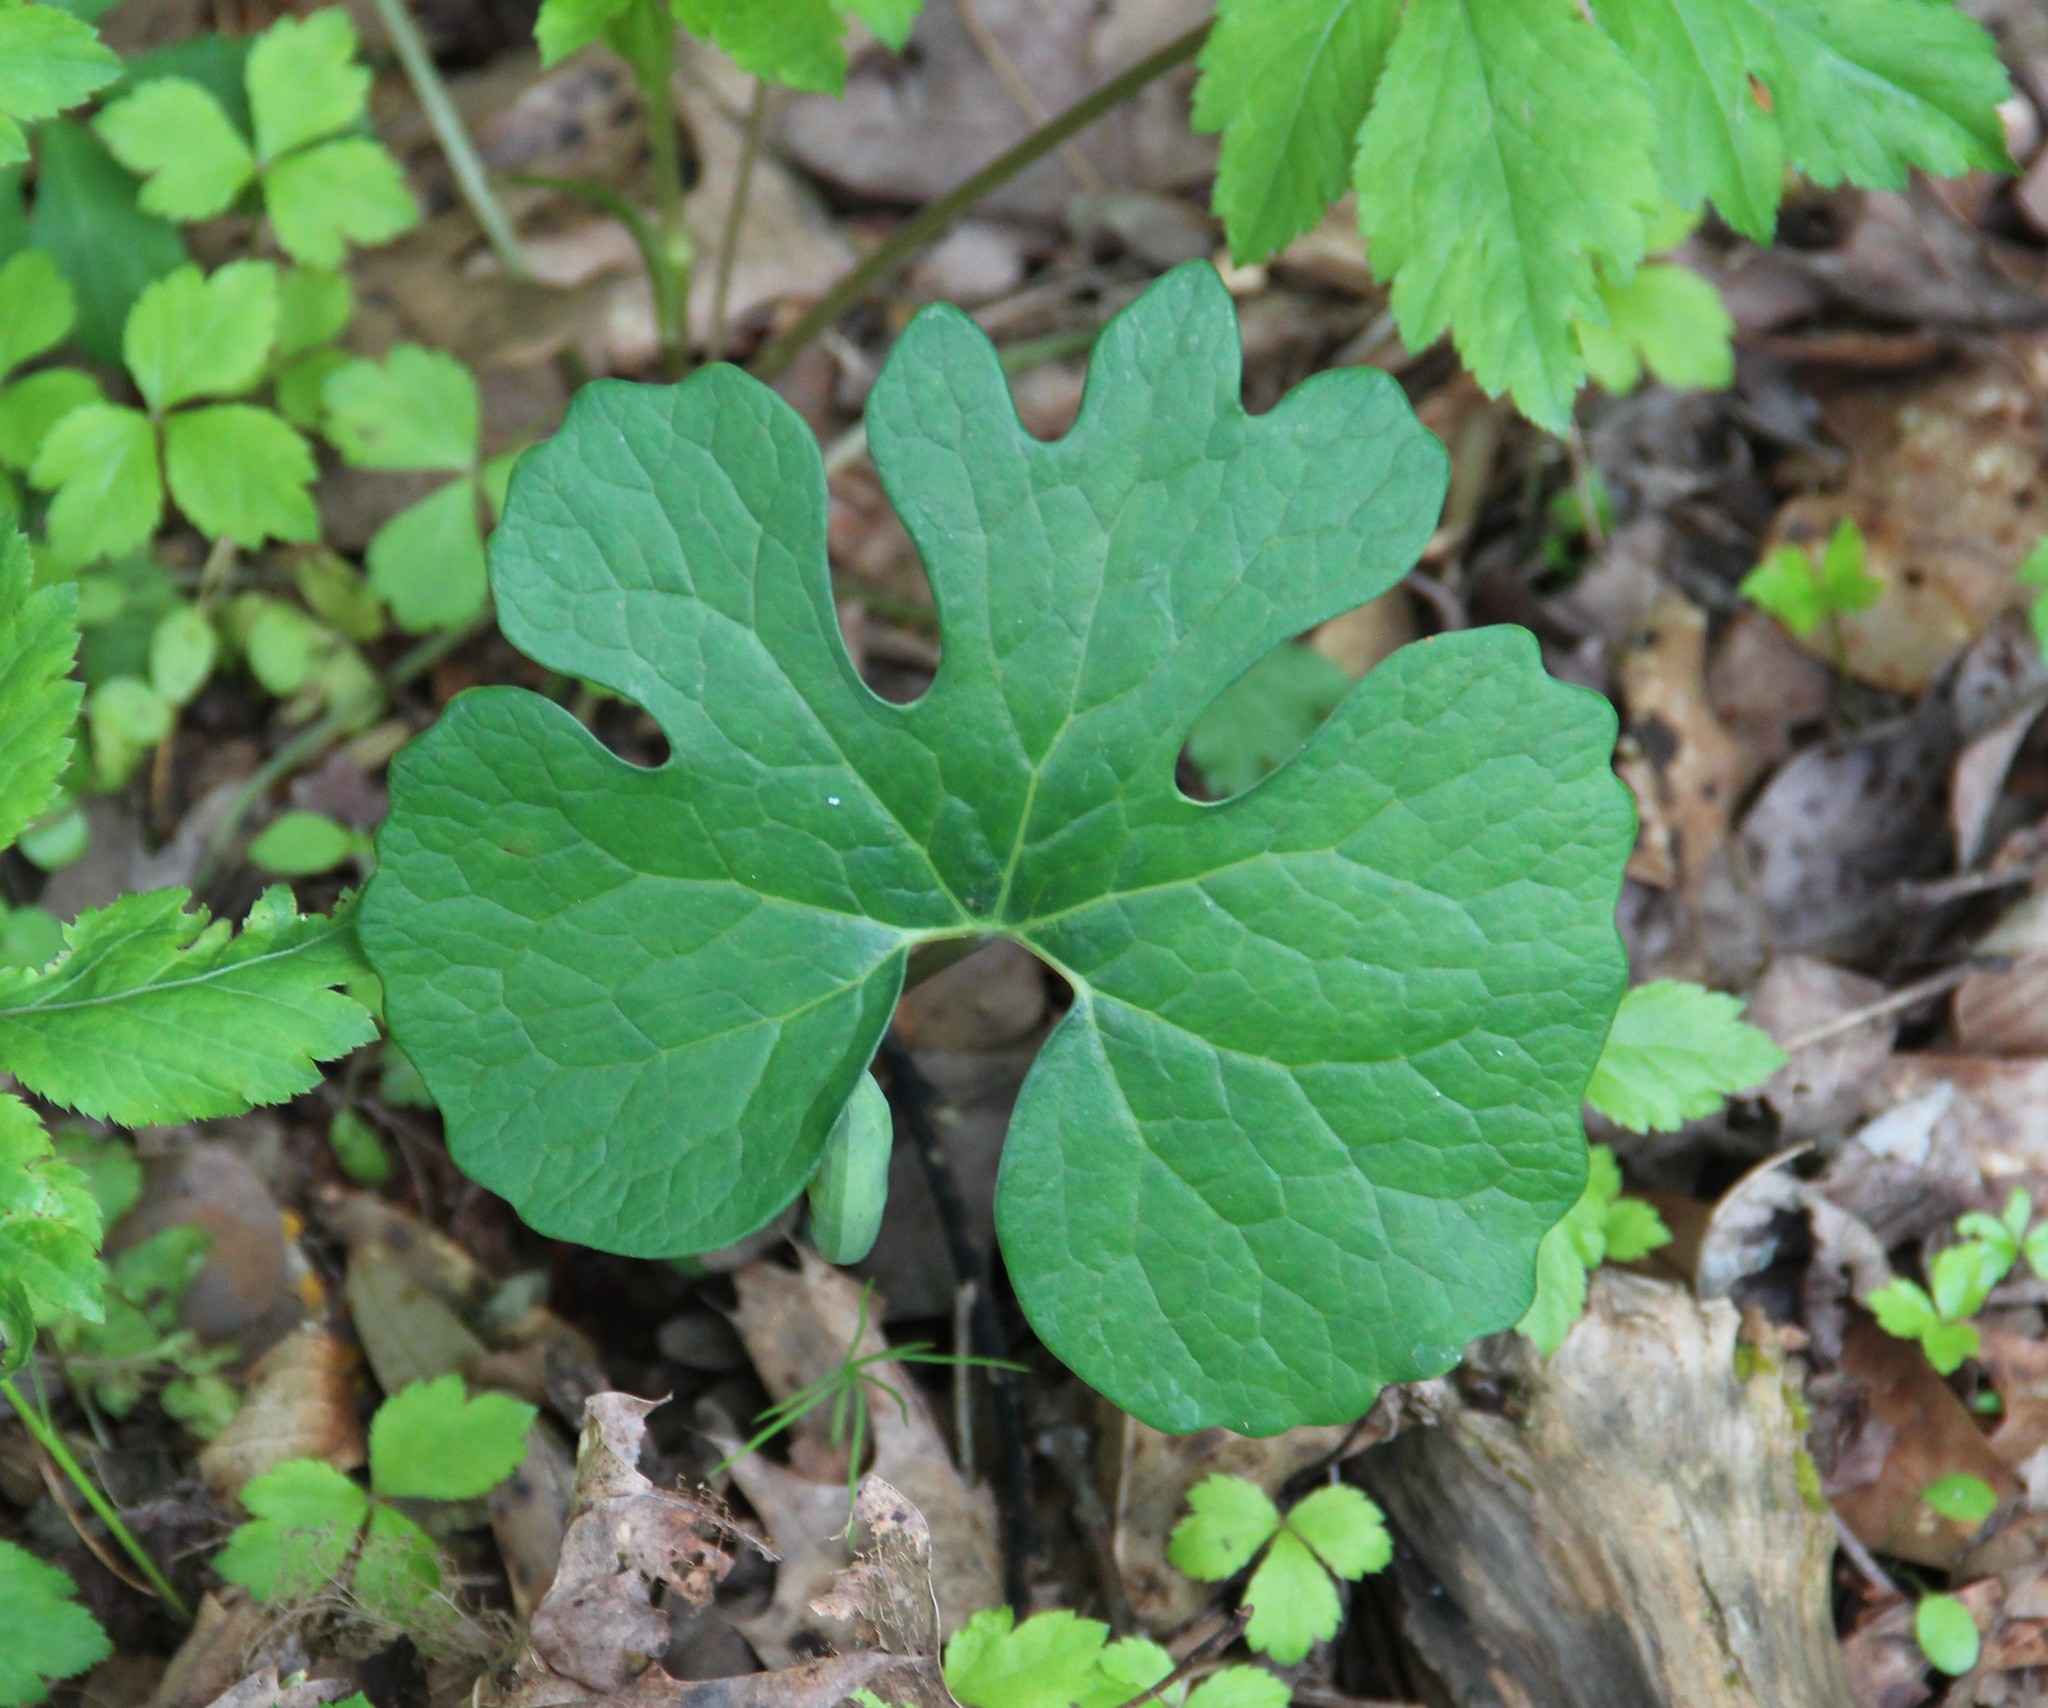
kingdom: Plantae
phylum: Tracheophyta
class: Magnoliopsida
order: Ranunculales
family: Papaveraceae
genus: Sanguinaria
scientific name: Sanguinaria canadensis
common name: Bloodroot
